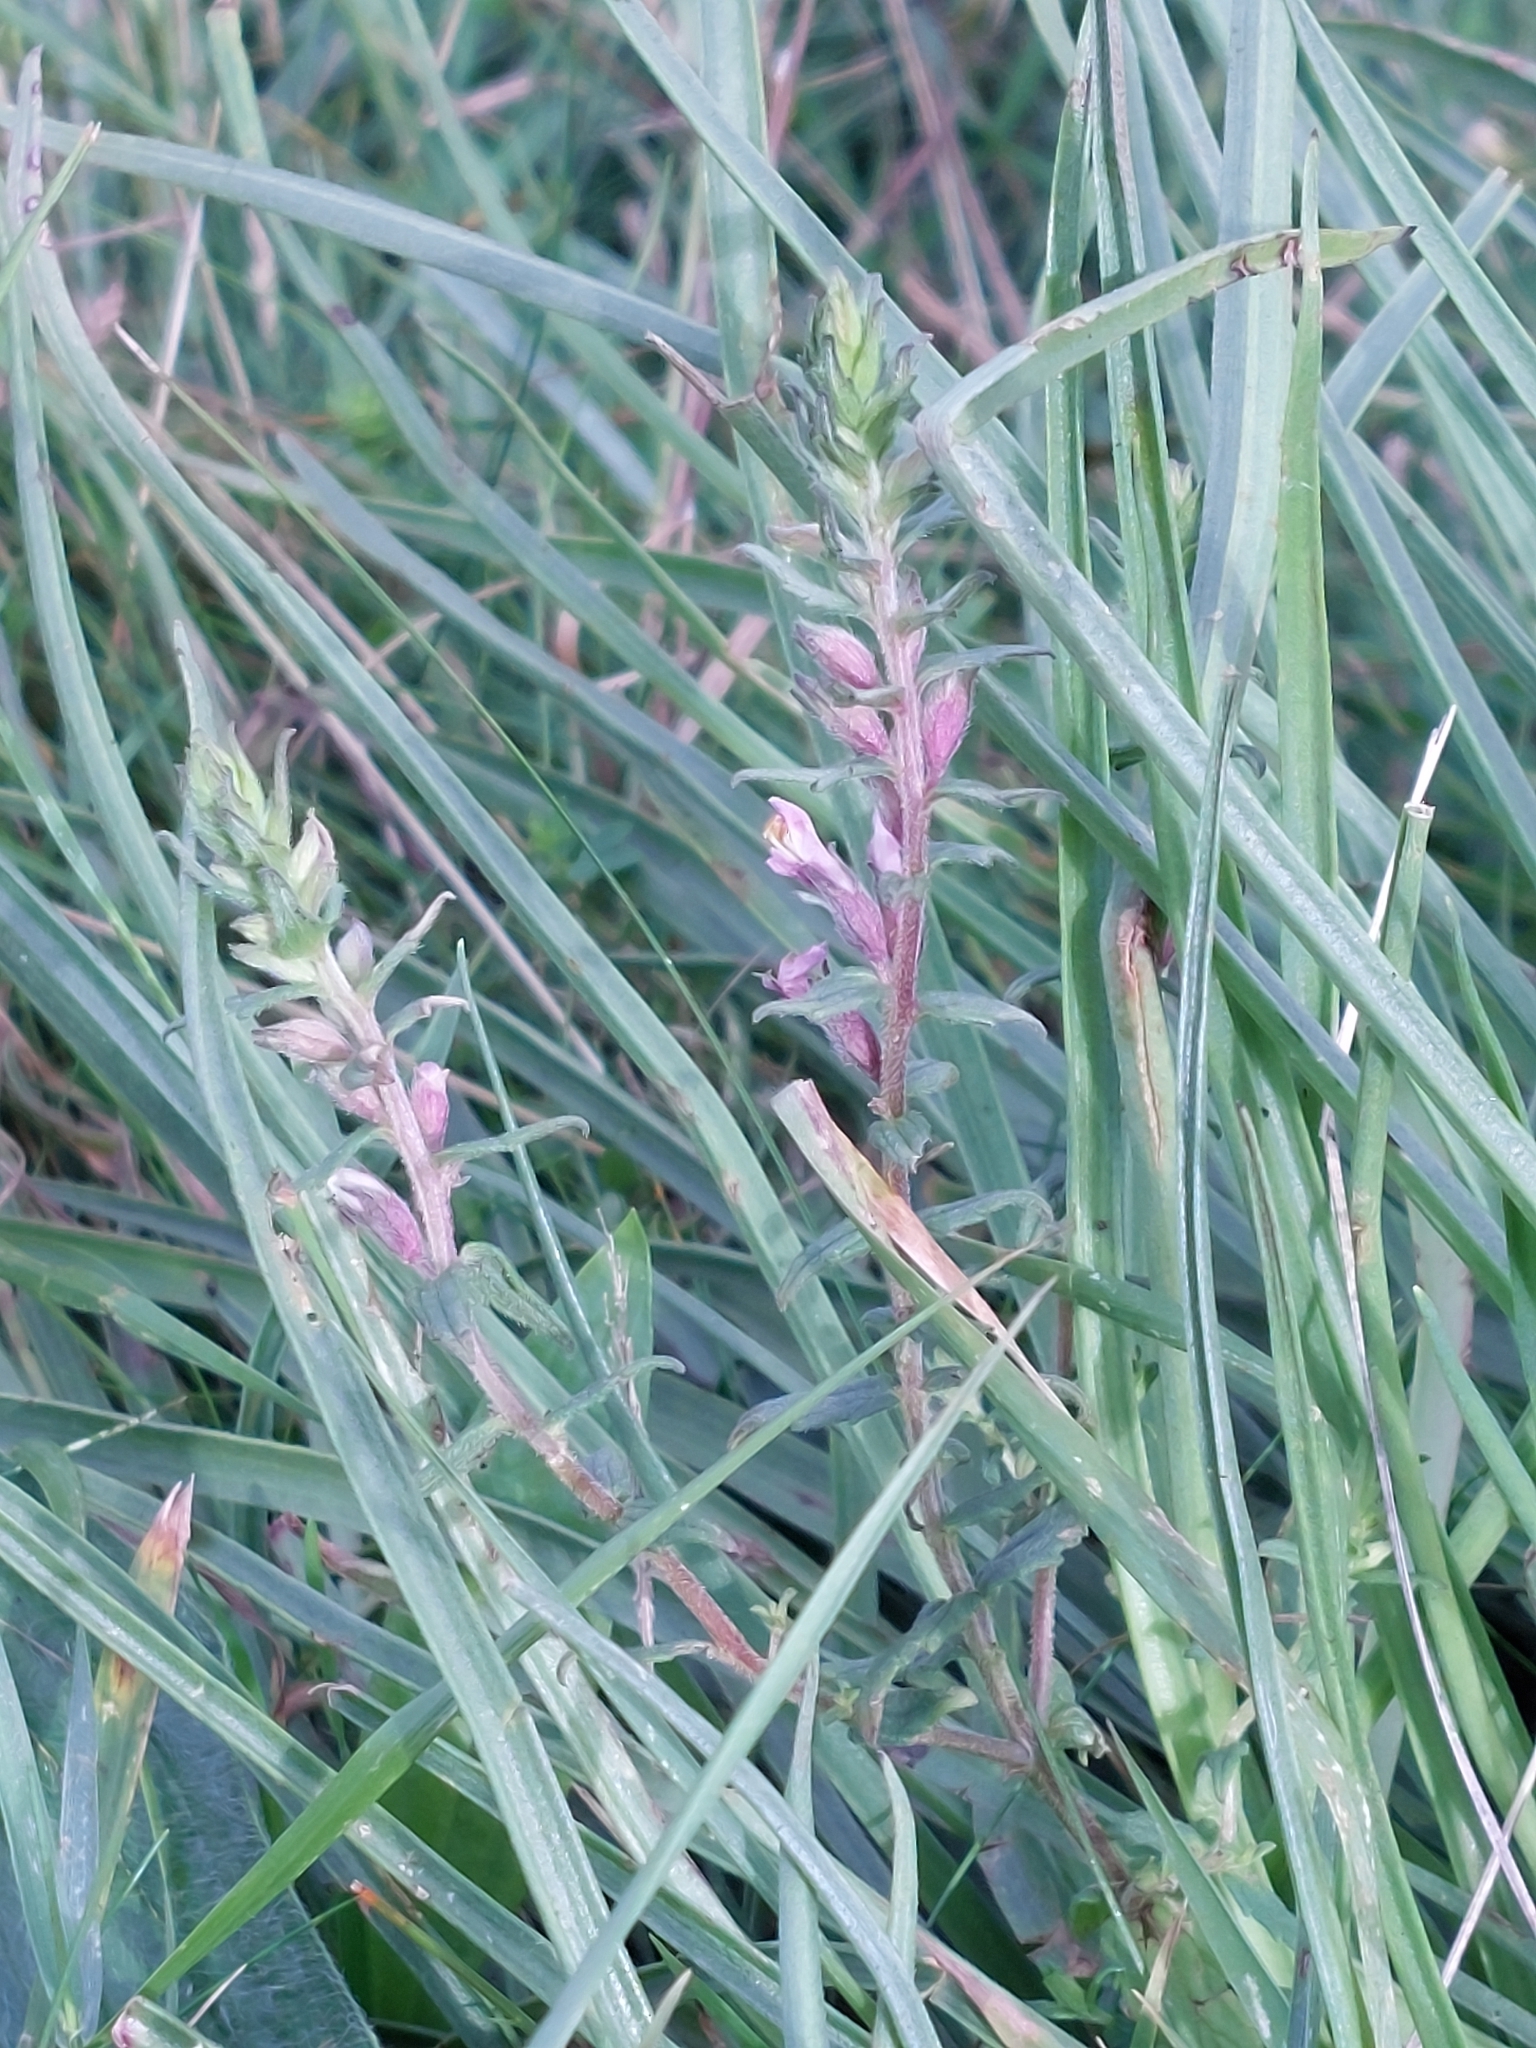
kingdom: Plantae
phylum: Tracheophyta
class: Magnoliopsida
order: Lamiales
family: Orobanchaceae
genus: Odontites
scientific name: Odontites vernus
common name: Red bartsia
